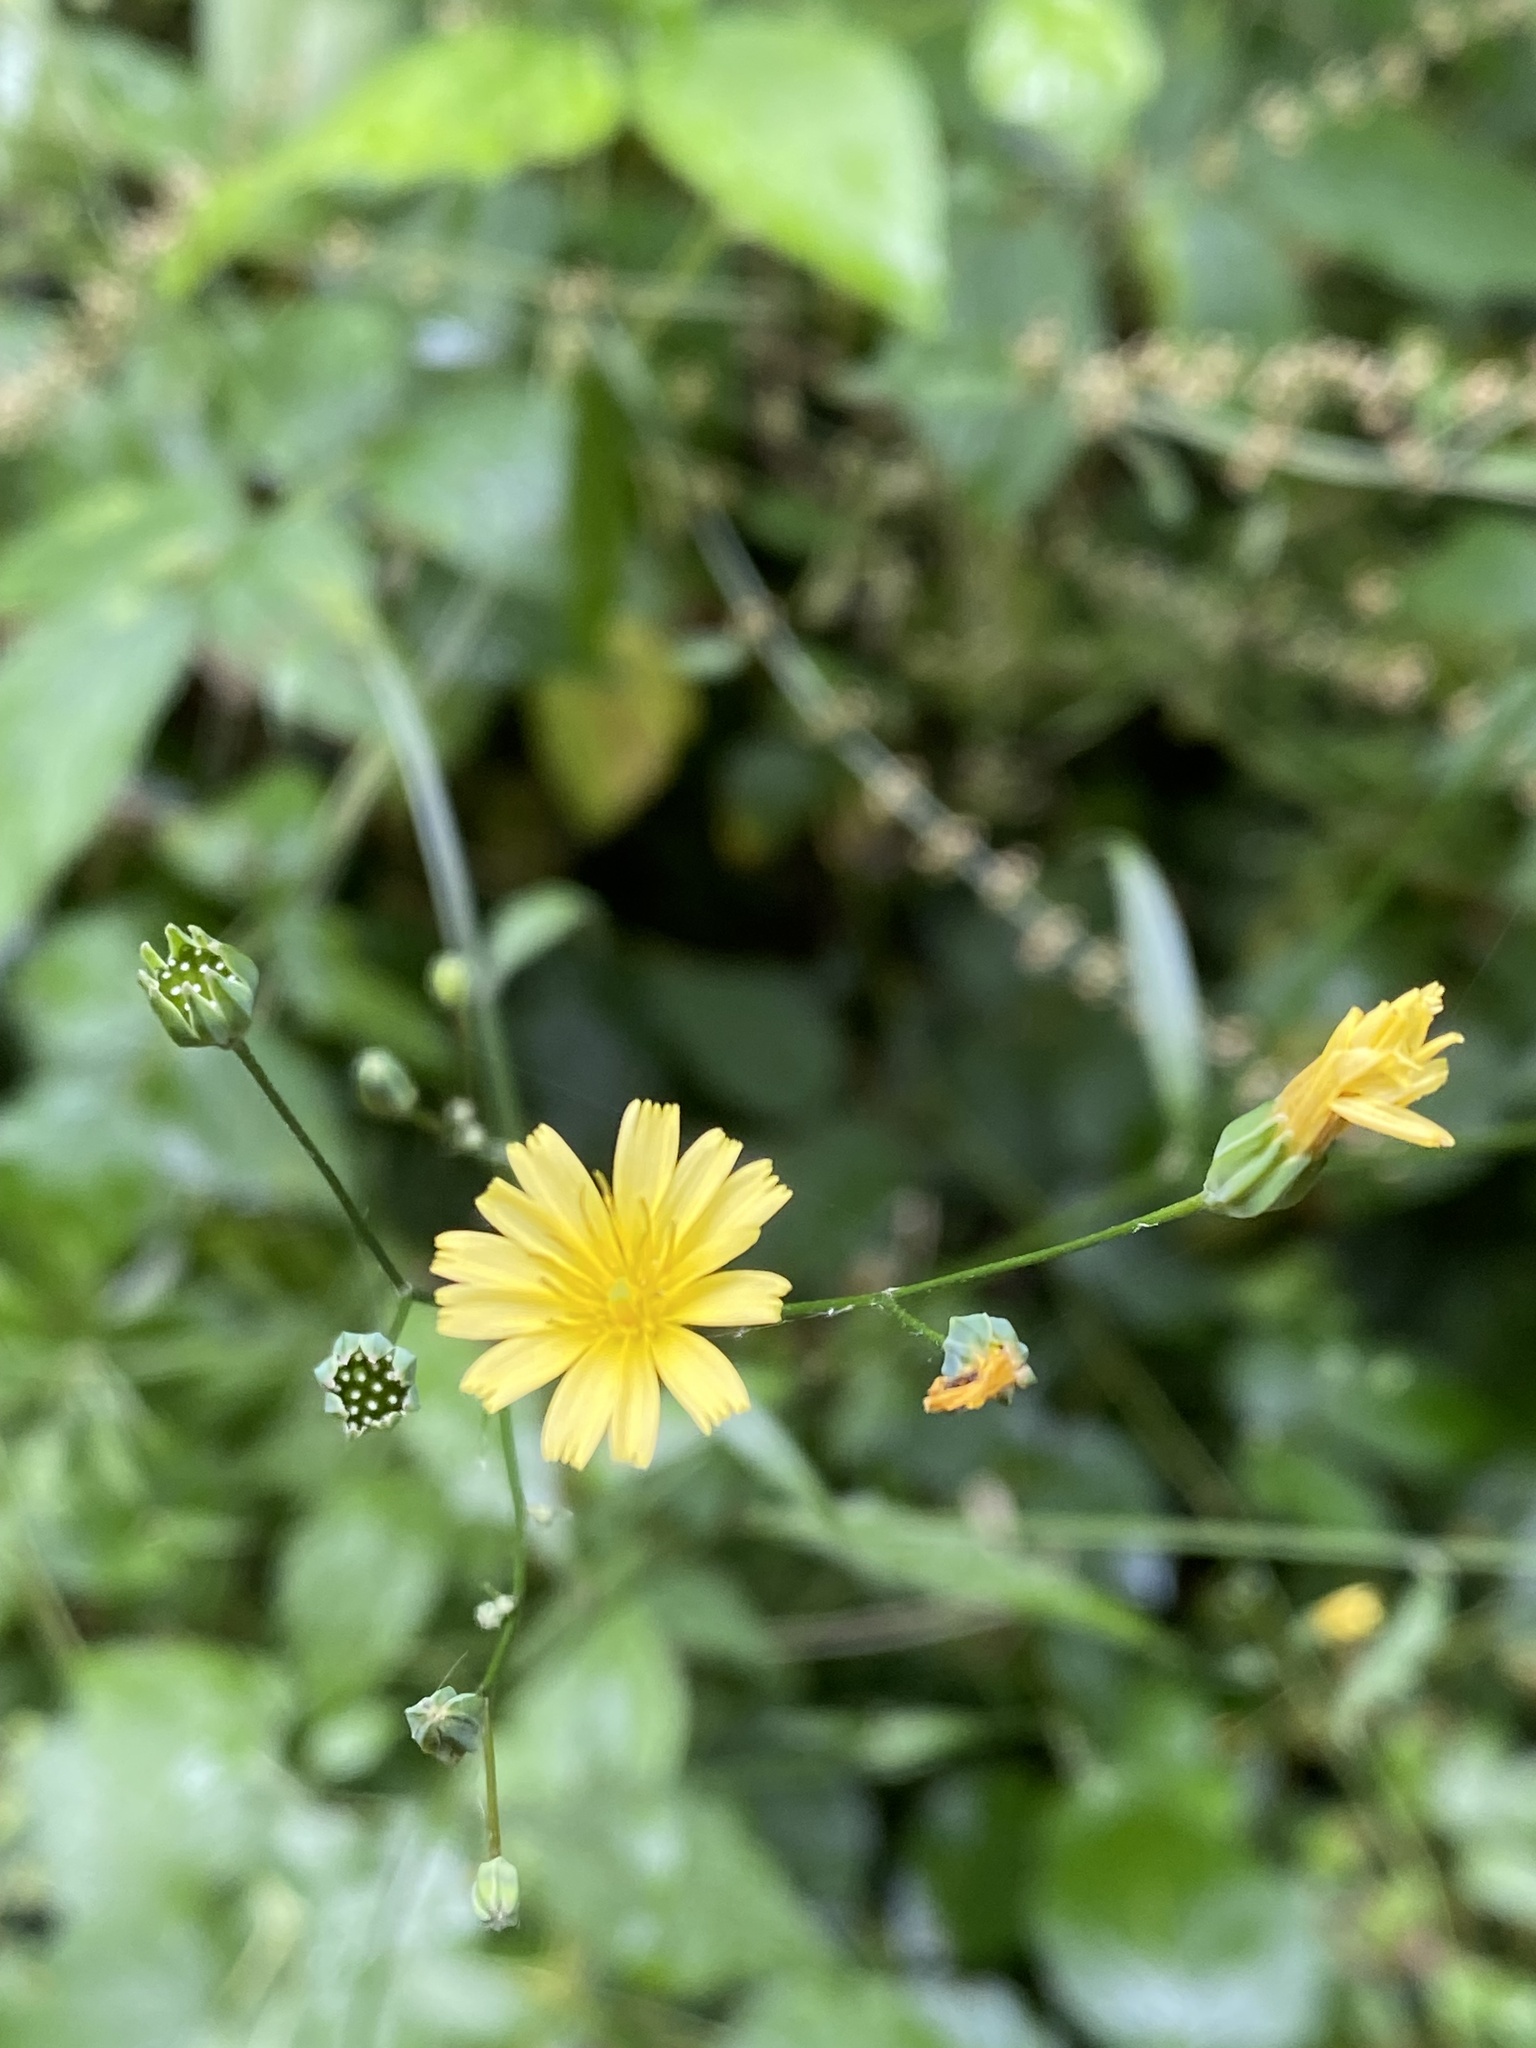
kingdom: Plantae
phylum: Tracheophyta
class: Magnoliopsida
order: Asterales
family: Asteraceae
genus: Lapsana
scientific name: Lapsana communis
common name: Nipplewort
